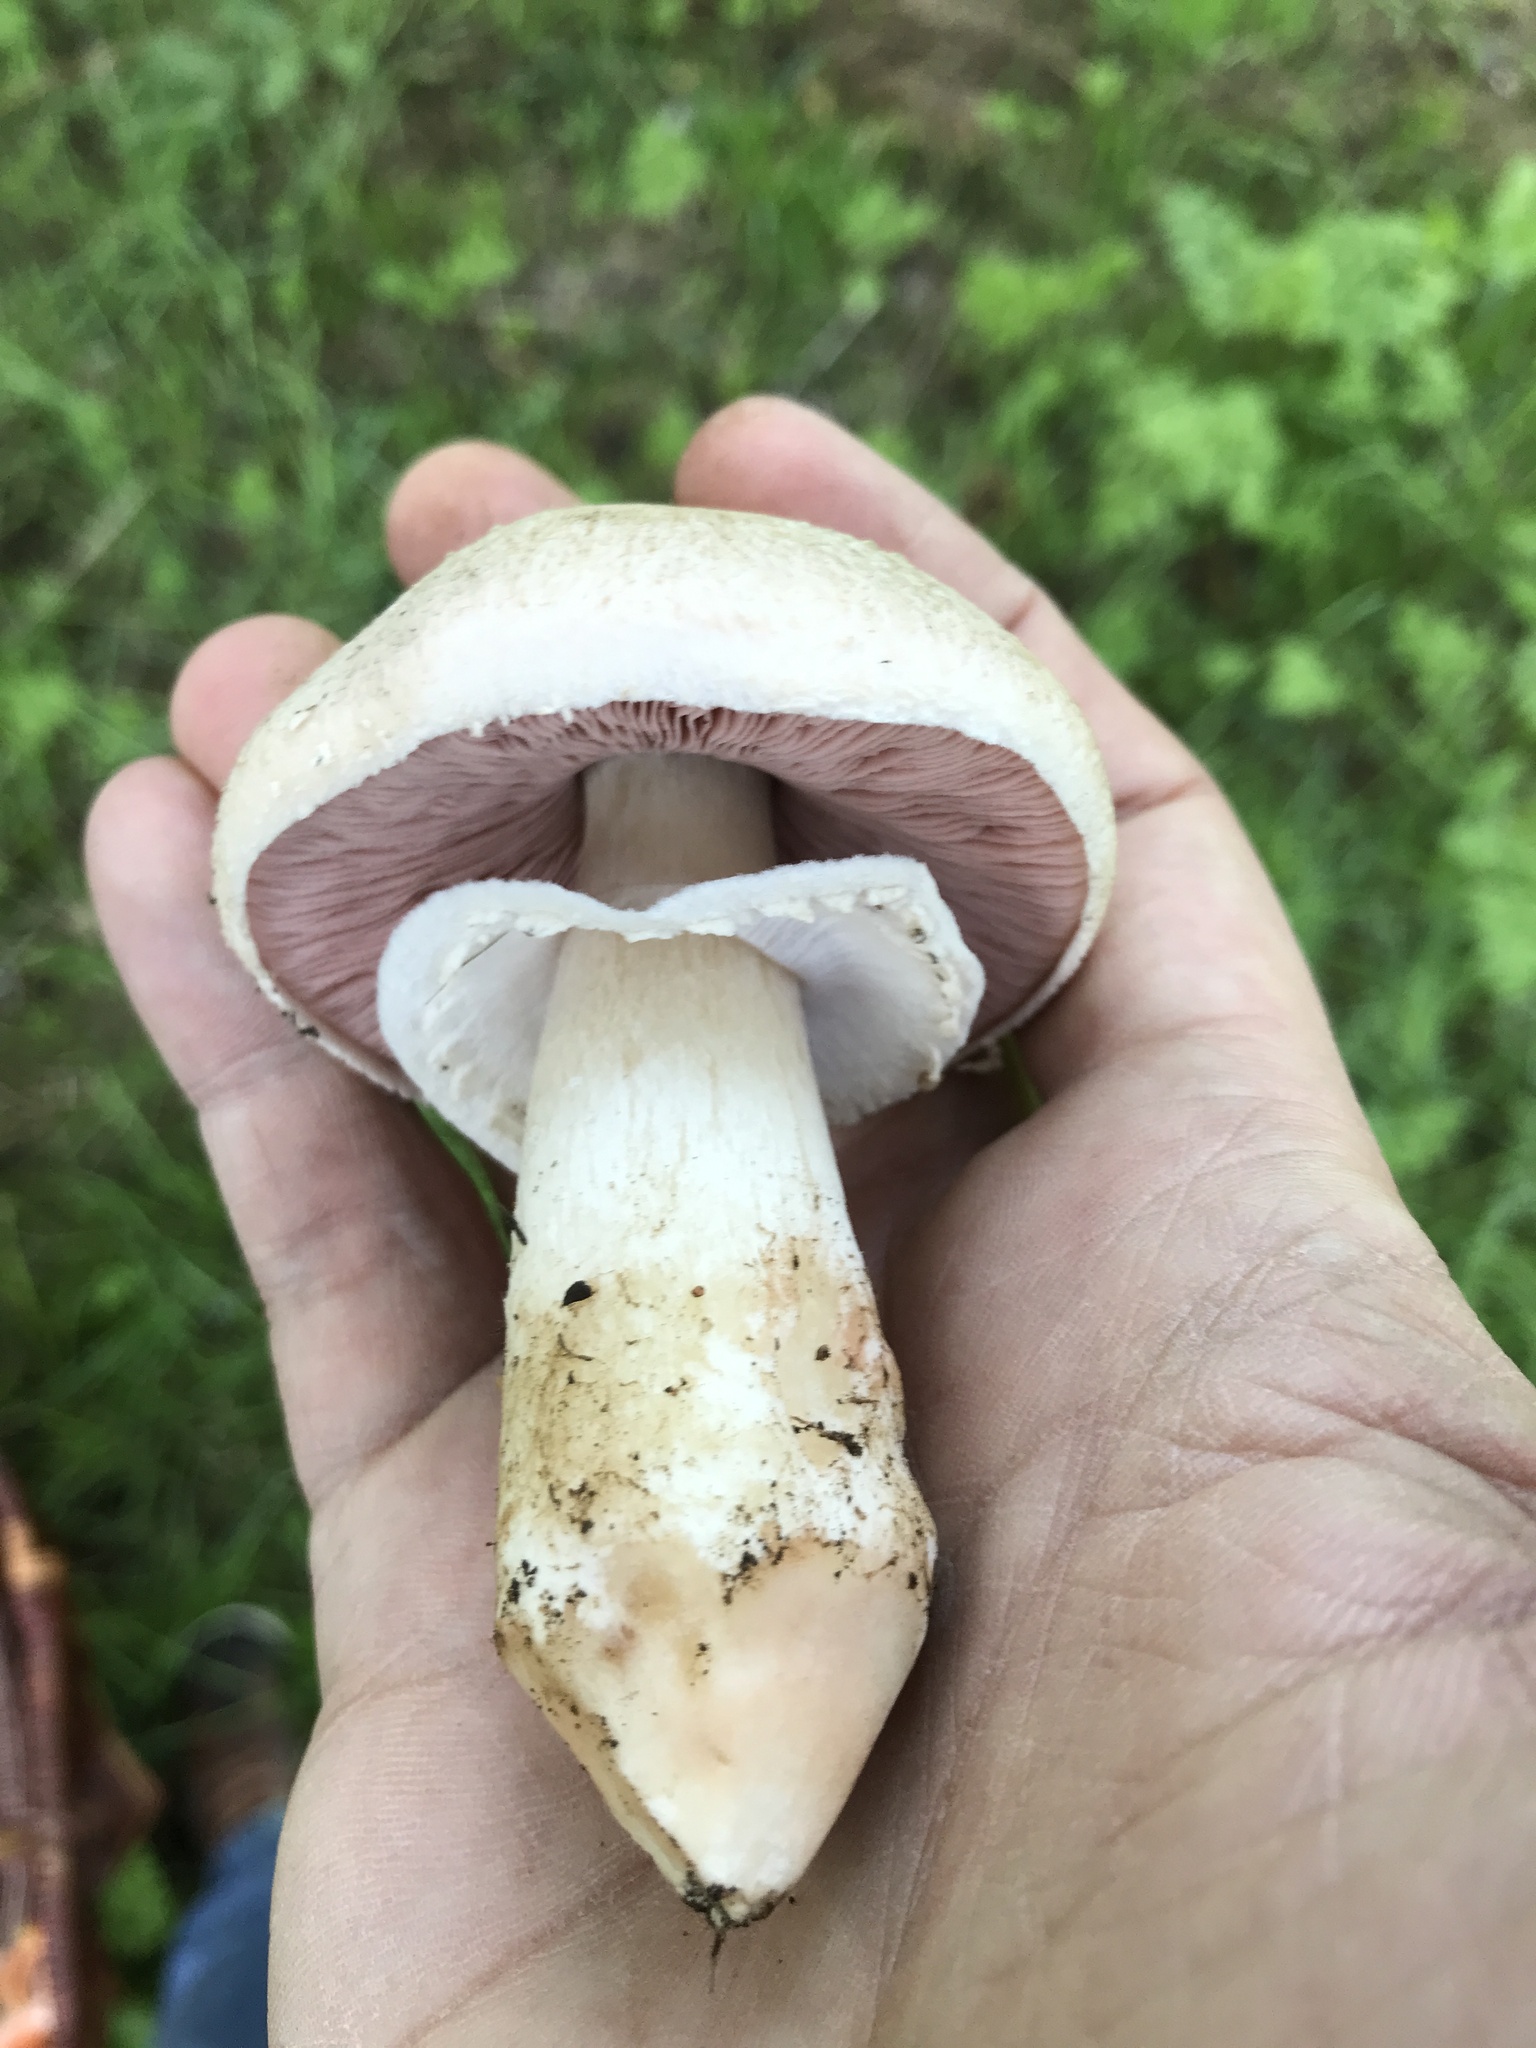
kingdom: Fungi
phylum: Basidiomycota
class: Agaricomycetes
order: Agaricales
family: Agaricaceae
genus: Agaricus
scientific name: Agaricus campestris
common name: Field mushroom
